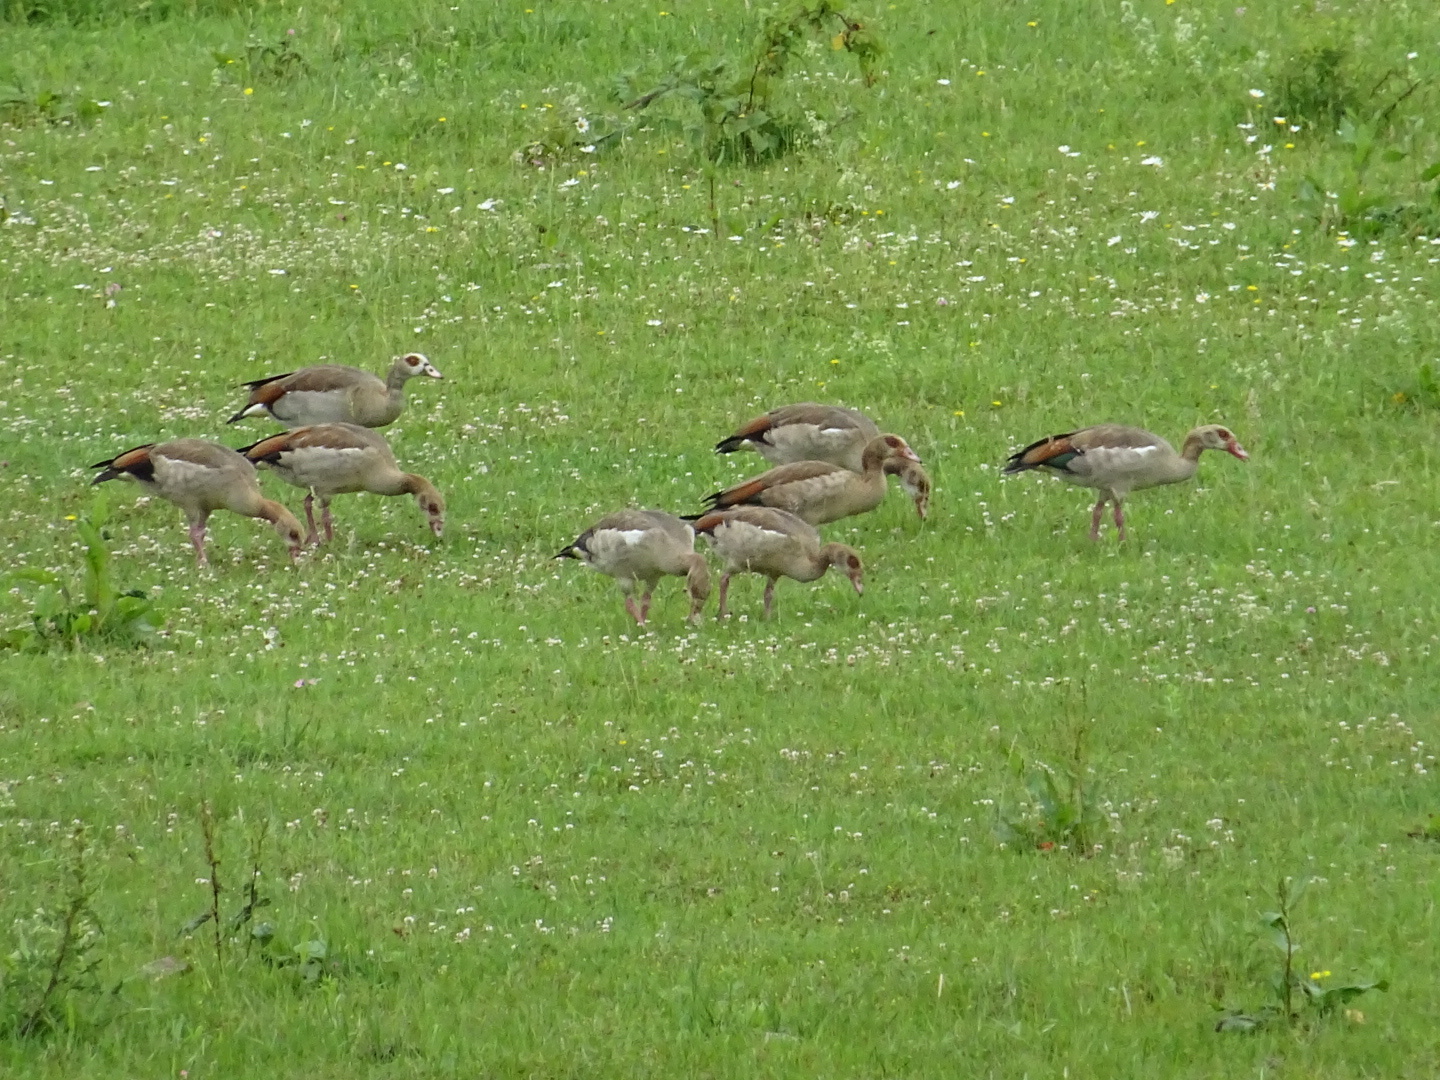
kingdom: Animalia
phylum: Chordata
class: Aves
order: Anseriformes
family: Anatidae
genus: Alopochen
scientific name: Alopochen aegyptiaca
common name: Egyptian goose
